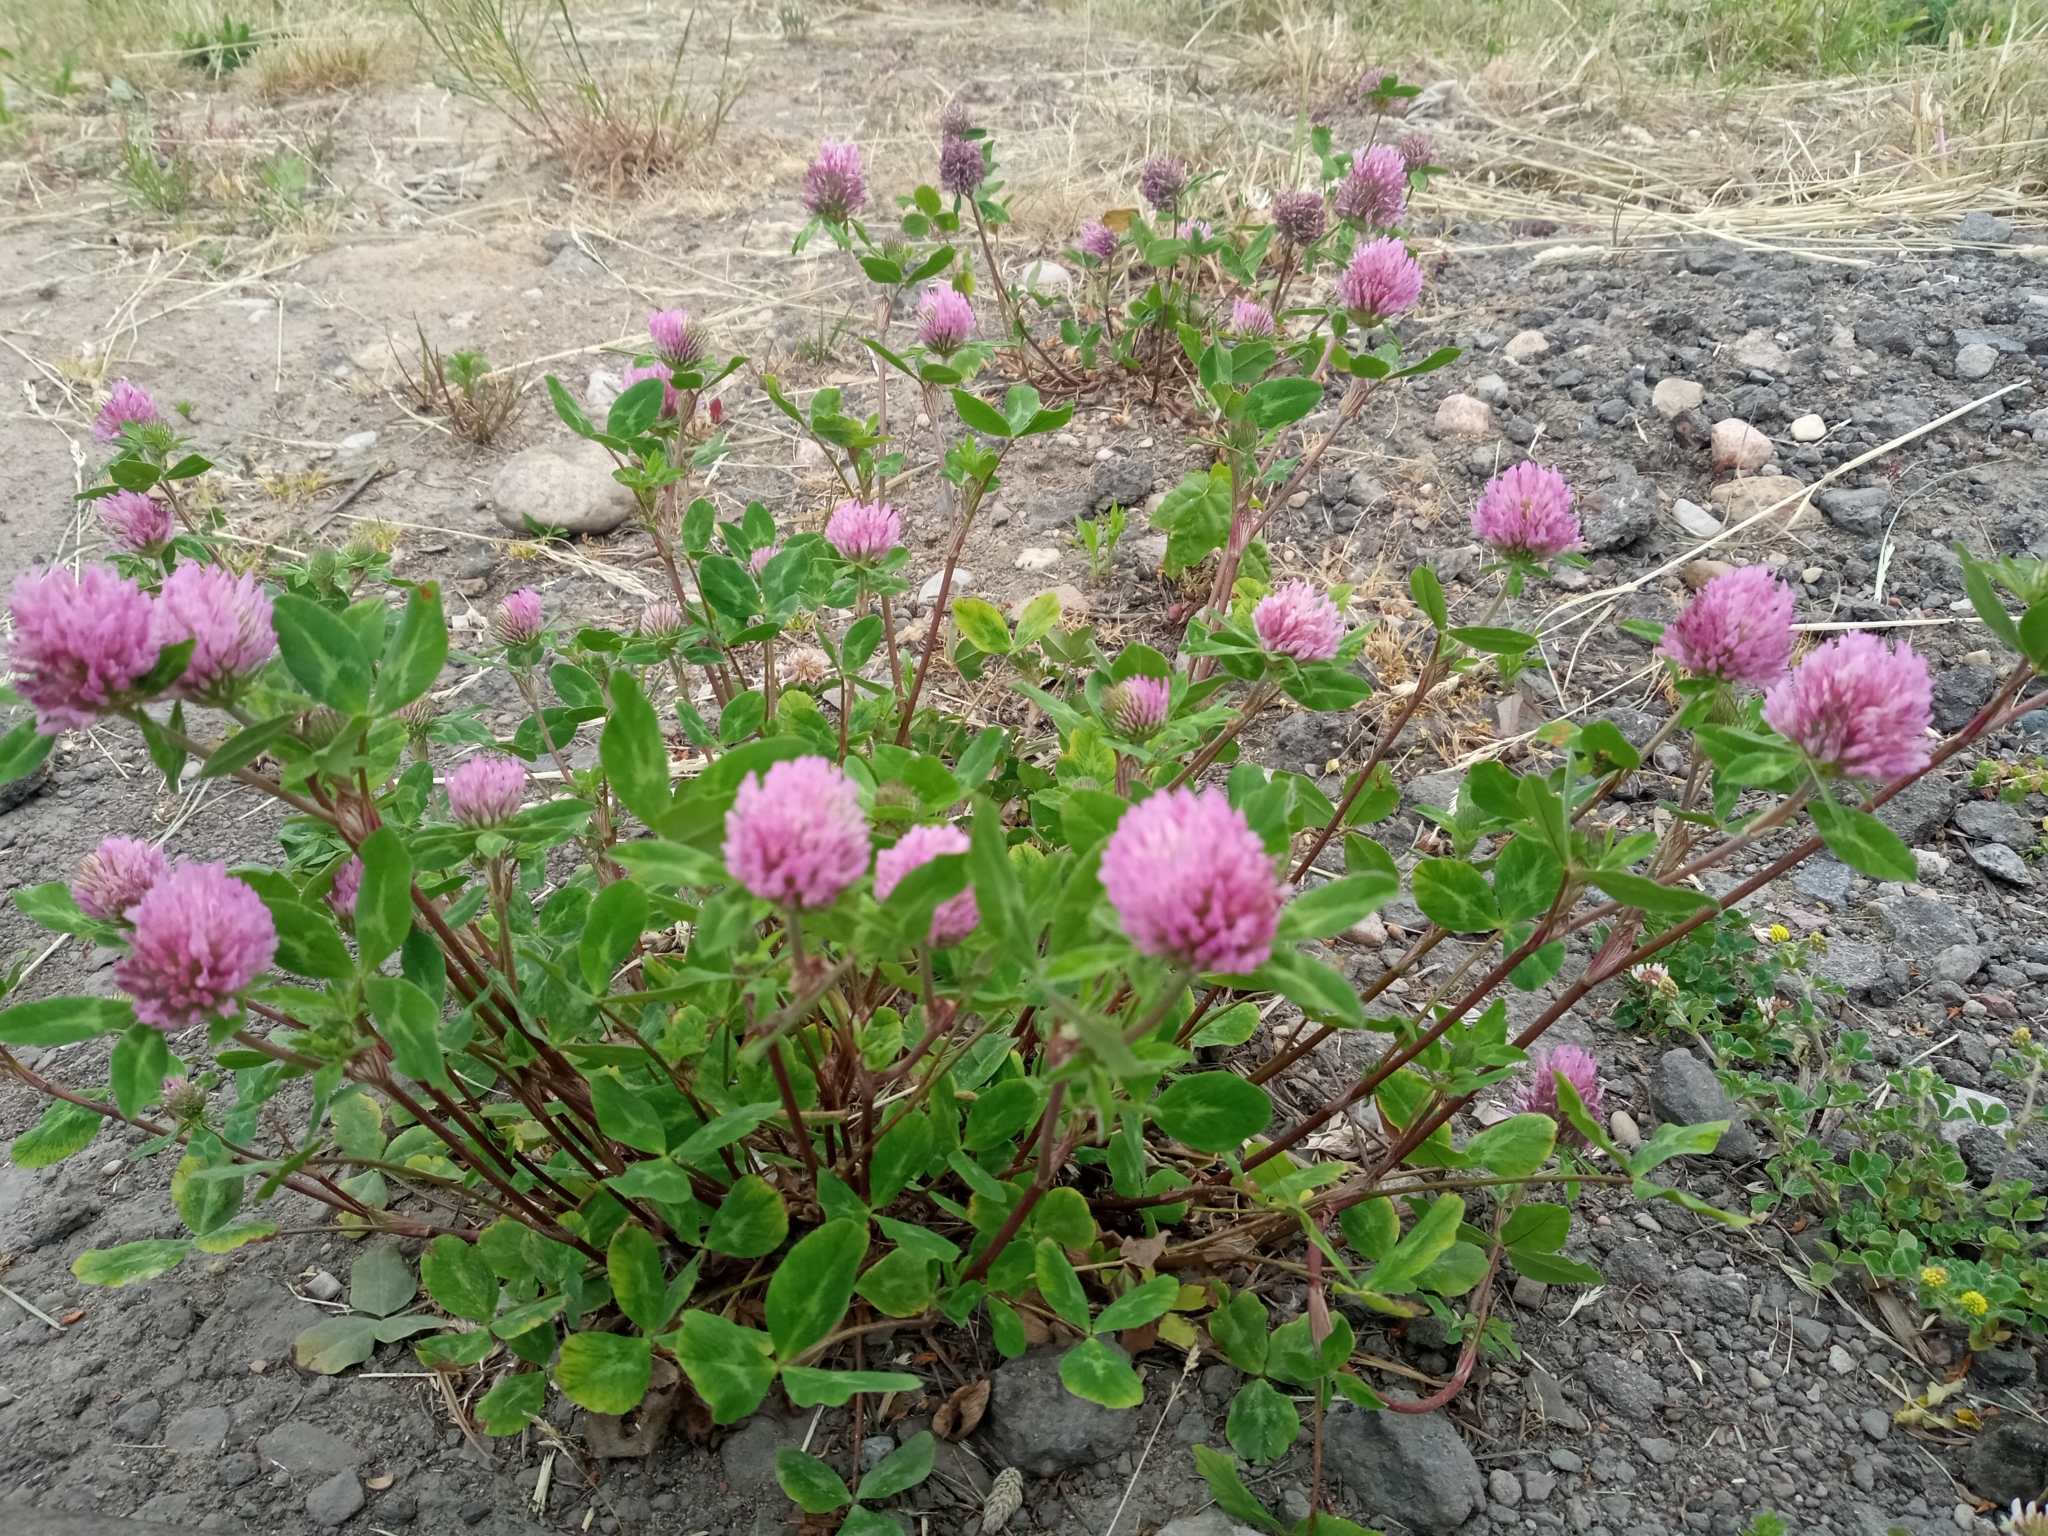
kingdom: Plantae
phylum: Tracheophyta
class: Magnoliopsida
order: Fabales
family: Fabaceae
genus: Trifolium
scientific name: Trifolium pratense
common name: Red clover
